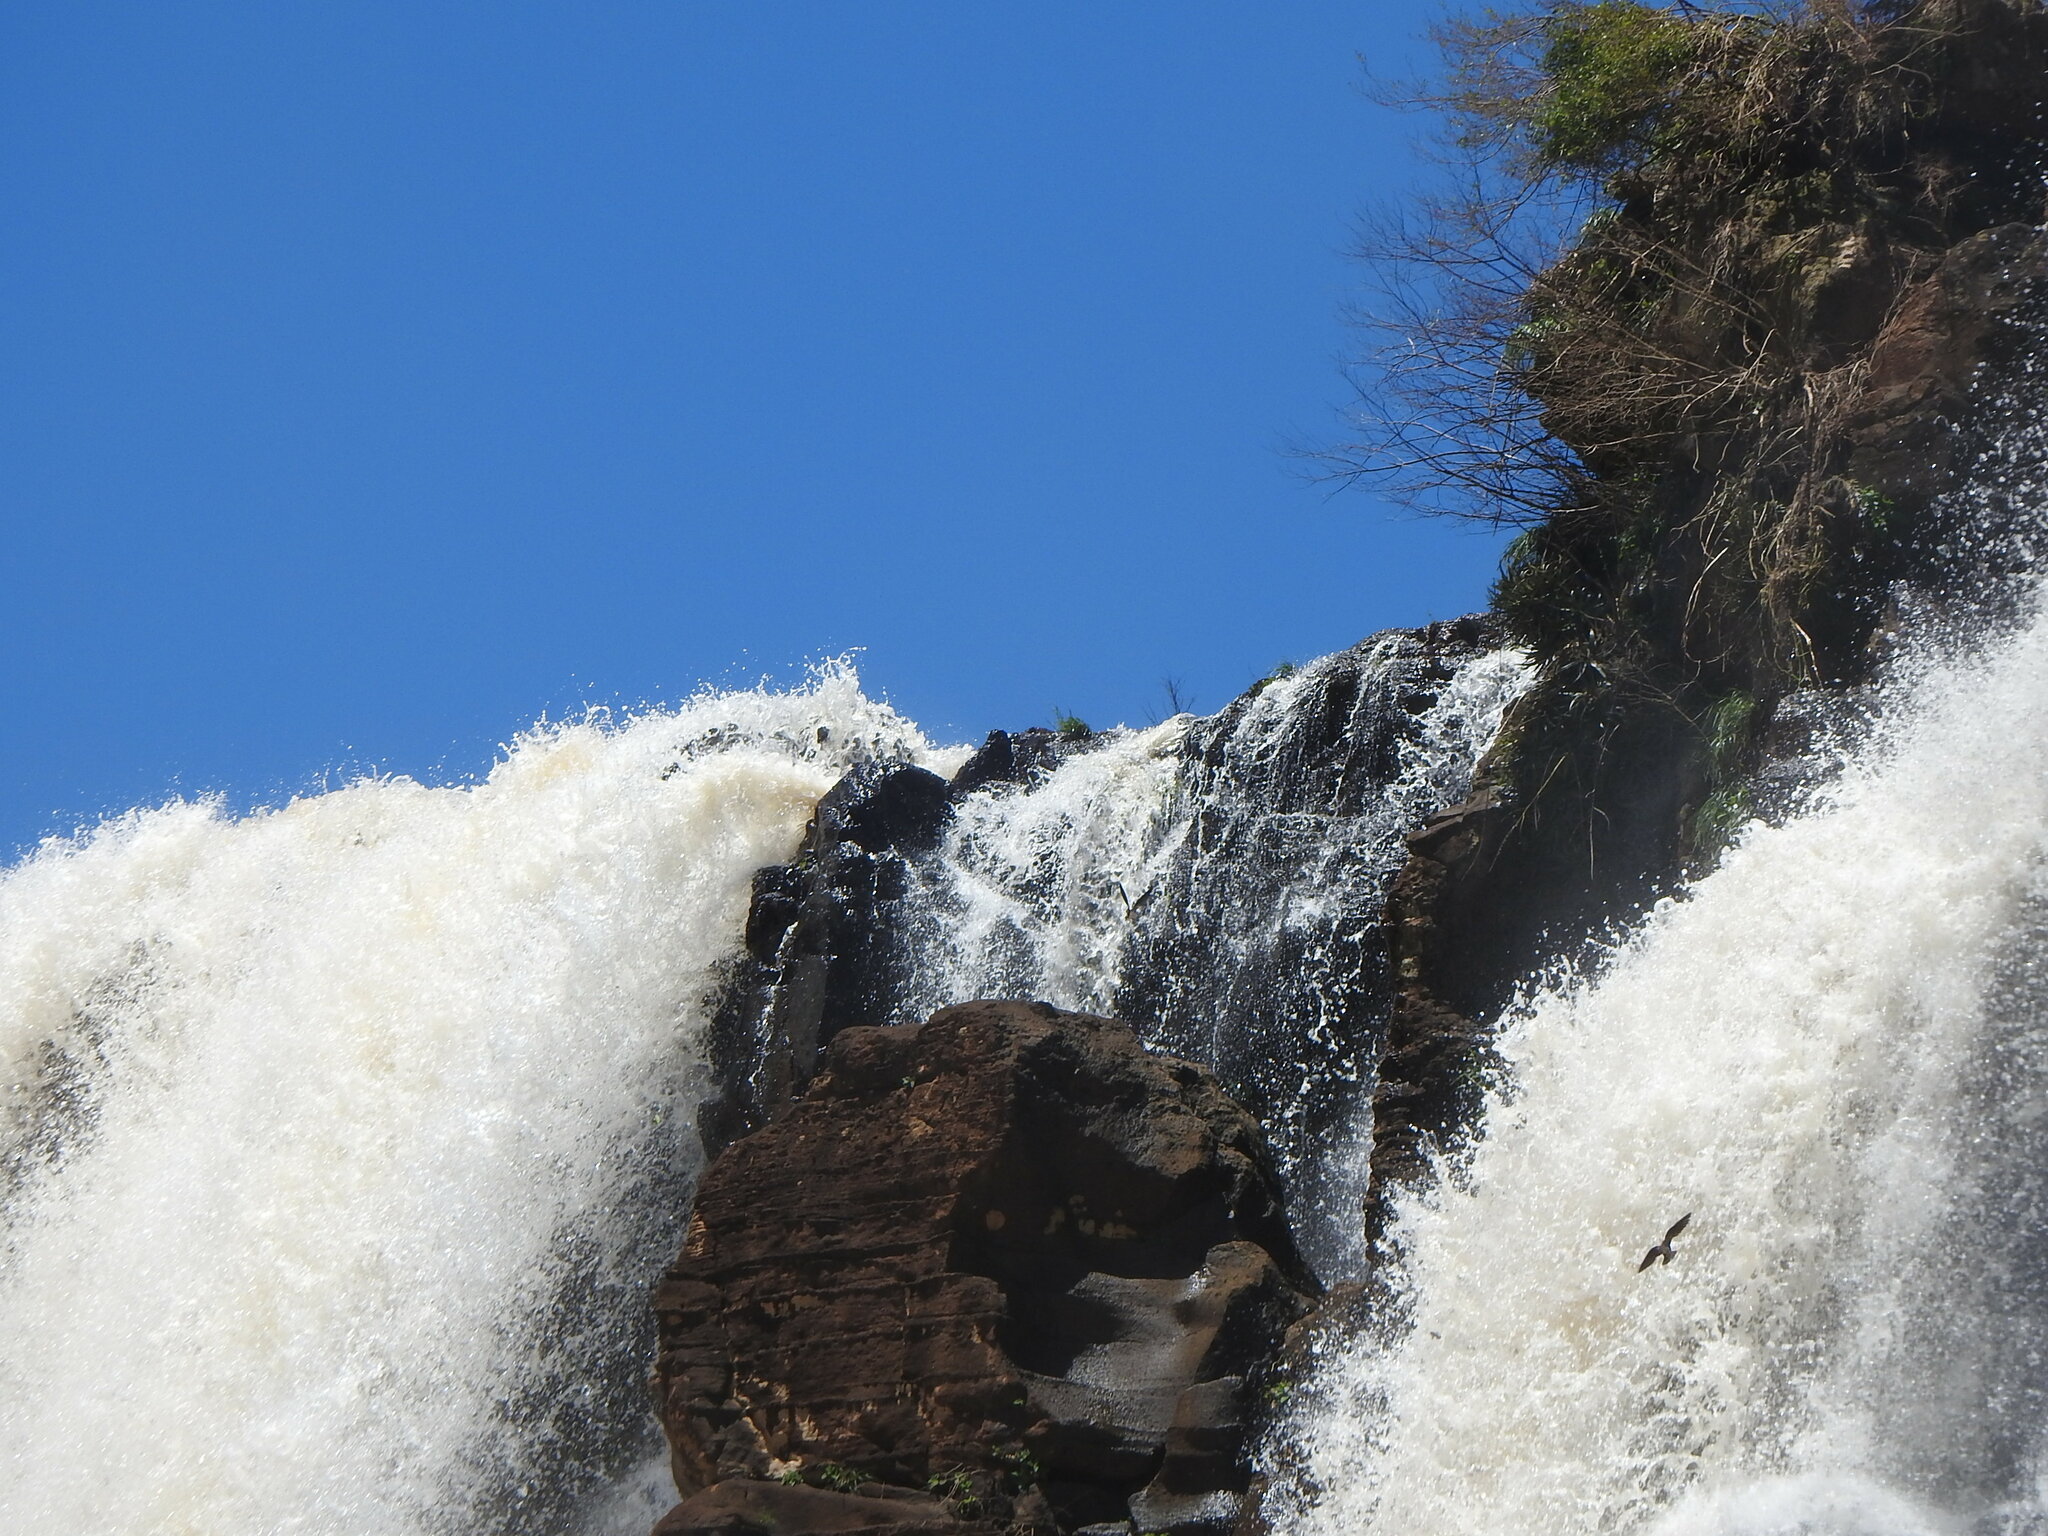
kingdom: Animalia
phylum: Chordata
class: Aves
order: Apodiformes
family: Apodidae
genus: Cypseloides
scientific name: Cypseloides senex
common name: Great dusky swift
